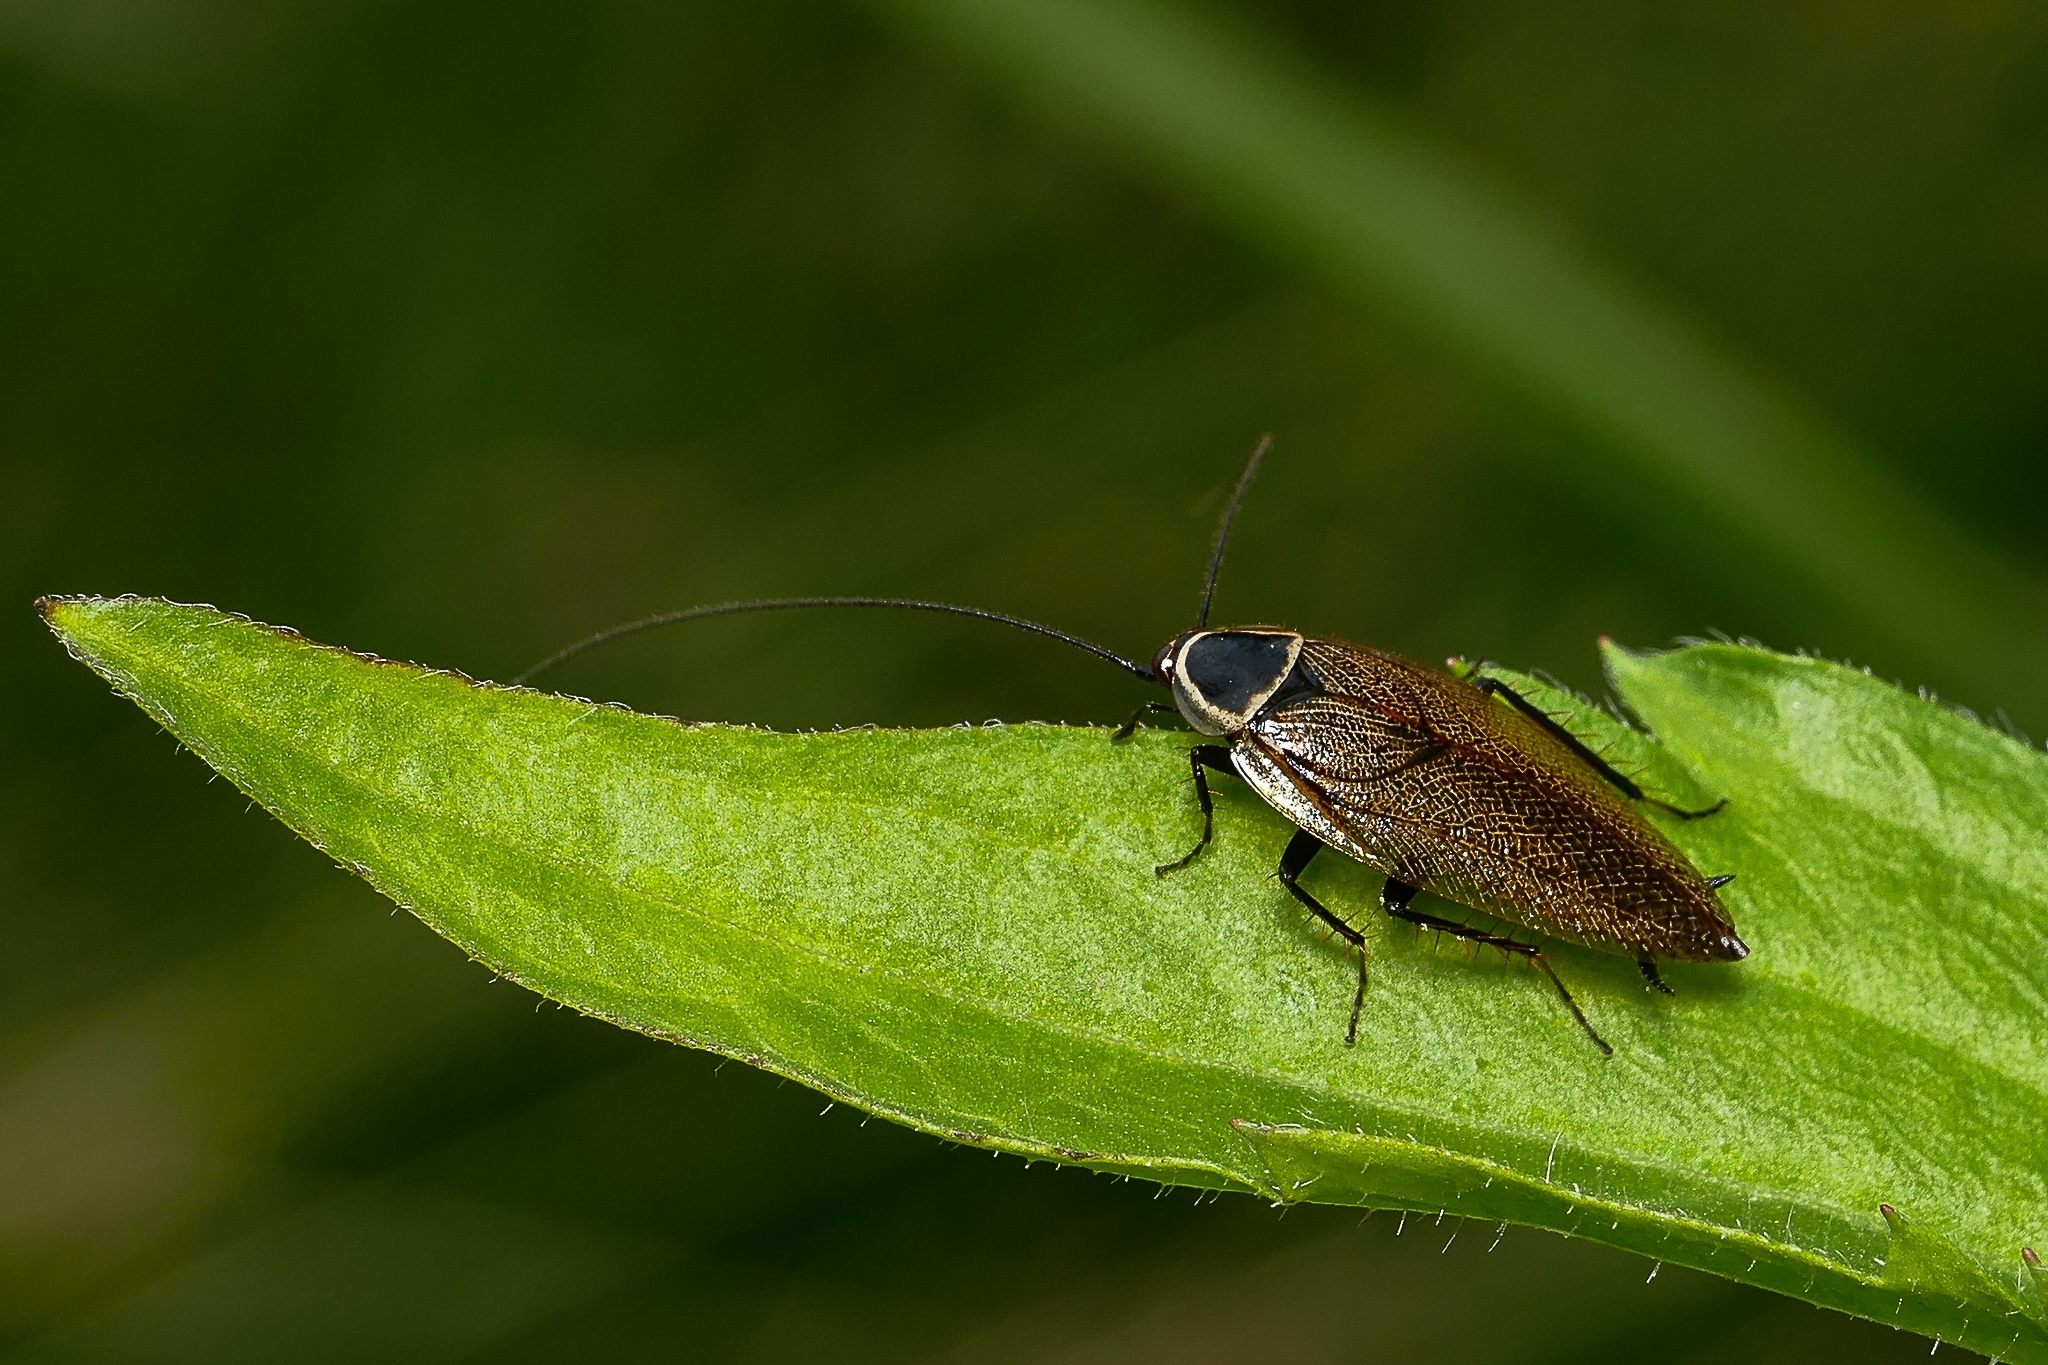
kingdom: Animalia
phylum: Arthropoda
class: Insecta
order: Blattodea
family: Ectobiidae
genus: Ectobius
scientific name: Ectobius sylvestris
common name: Forest cockroach
